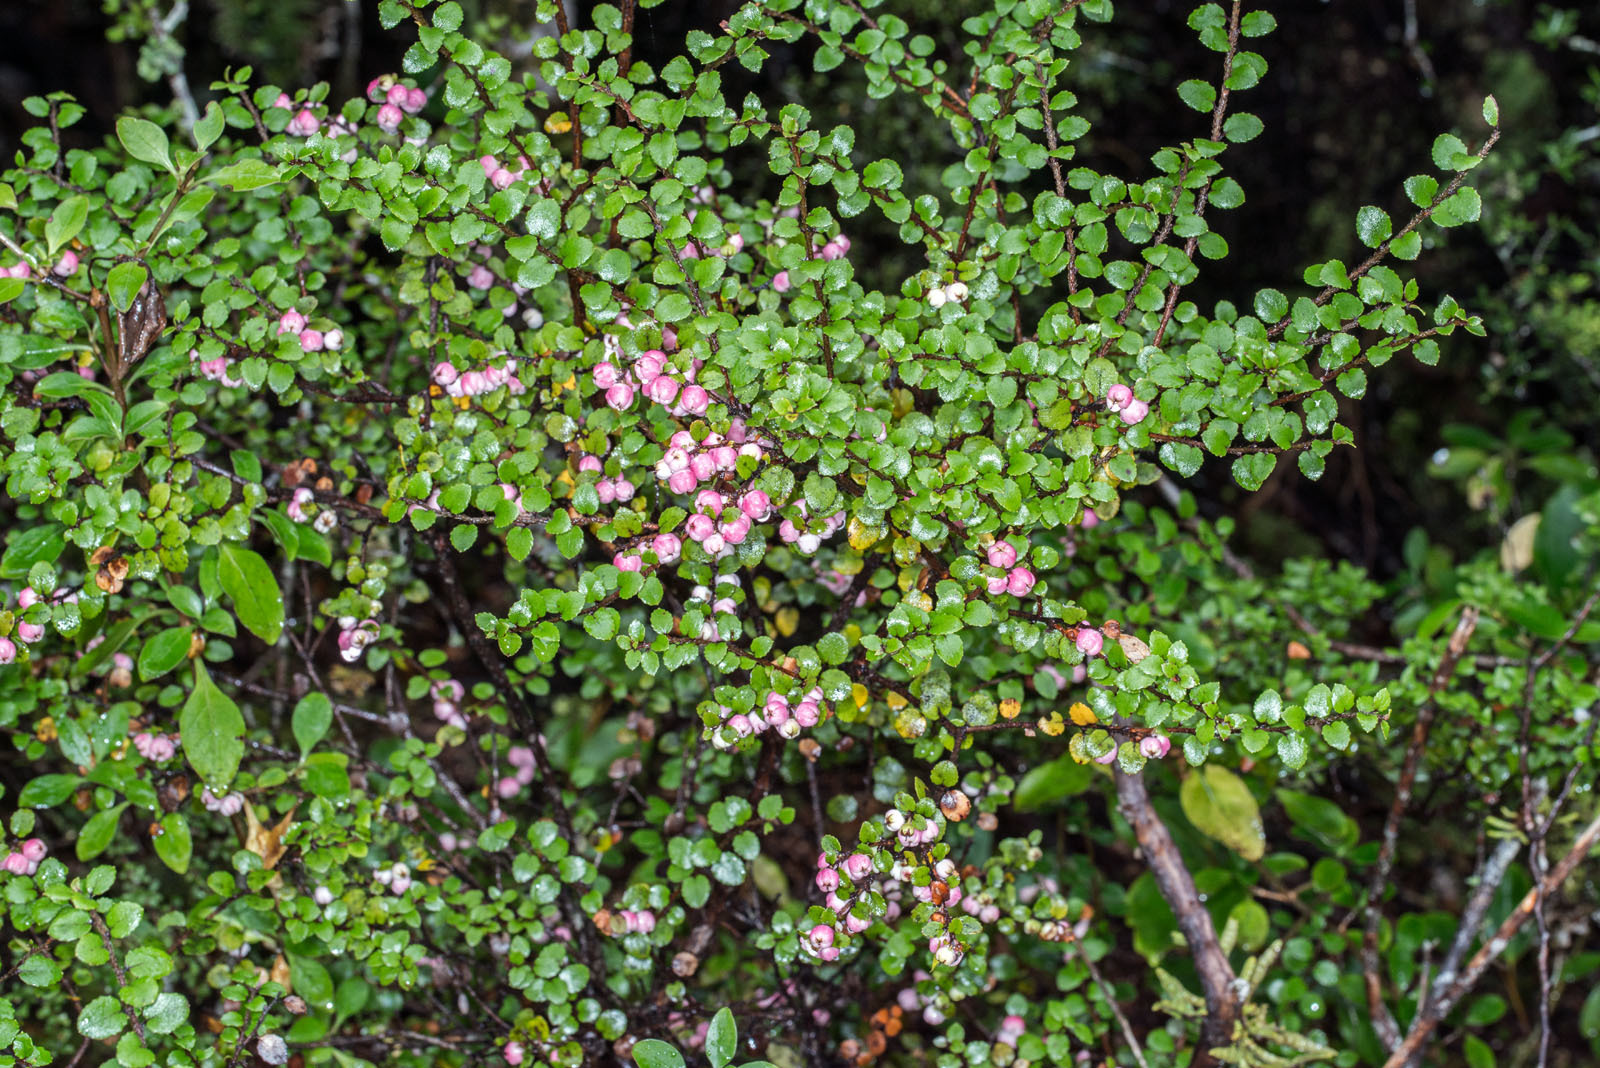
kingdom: Plantae
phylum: Tracheophyta
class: Magnoliopsida
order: Ericales
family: Ericaceae
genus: Gaultheria
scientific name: Gaultheria antipoda
